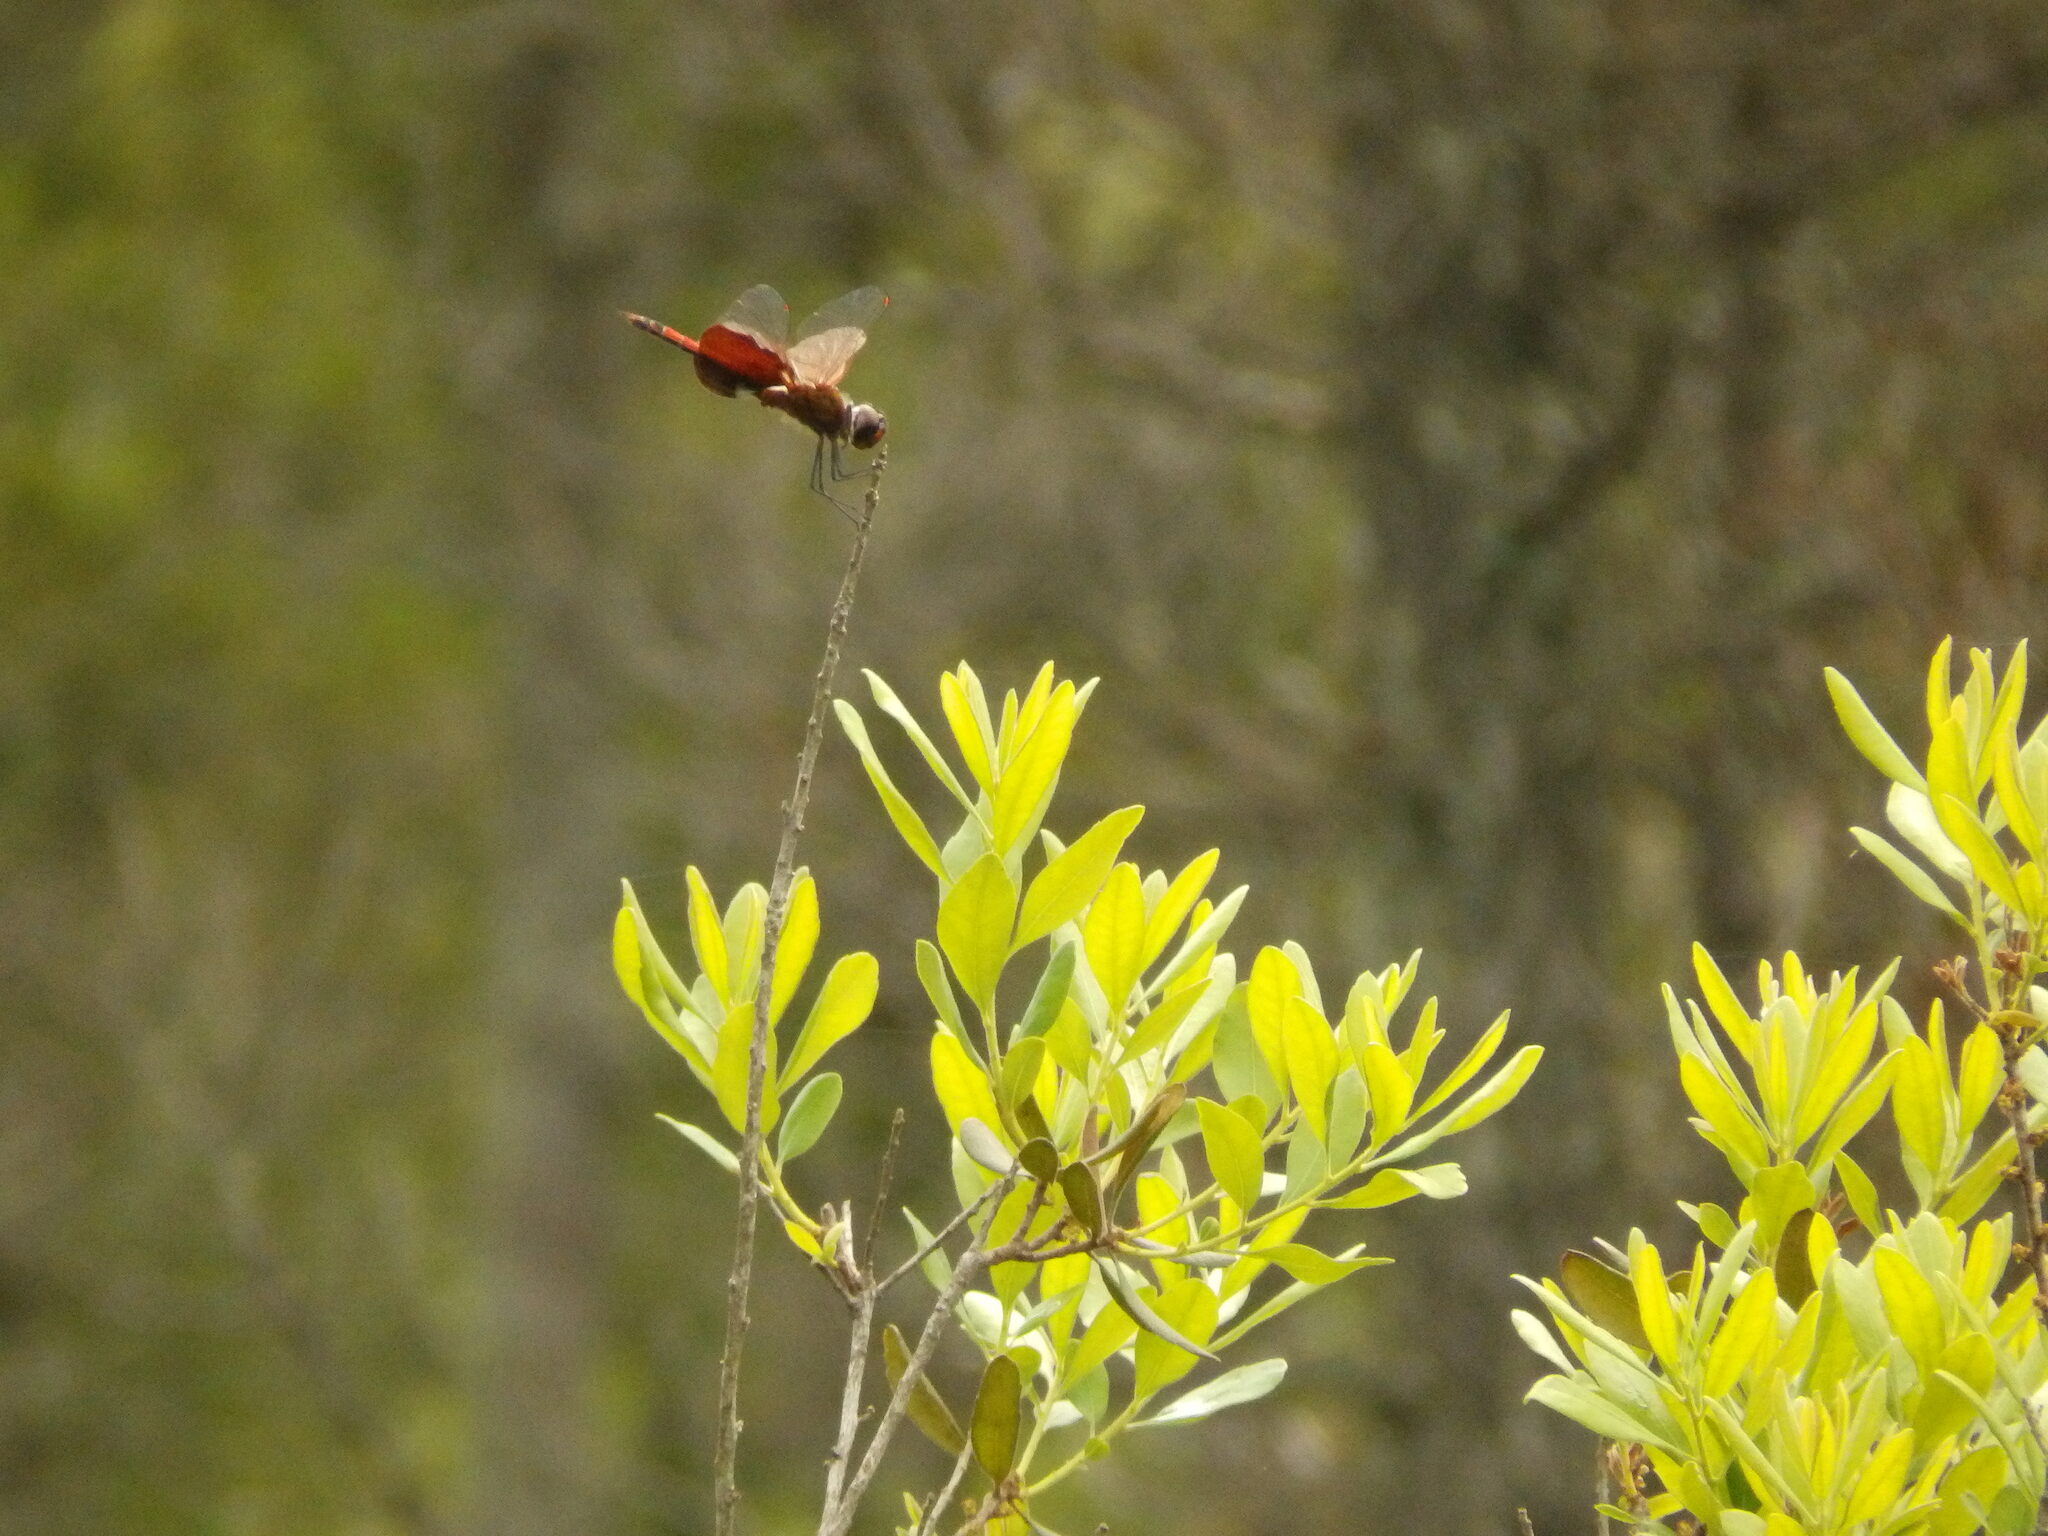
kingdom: Animalia
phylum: Arthropoda
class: Insecta
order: Odonata
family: Libellulidae
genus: Tramea
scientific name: Tramea carolina
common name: Carolina saddlebags
